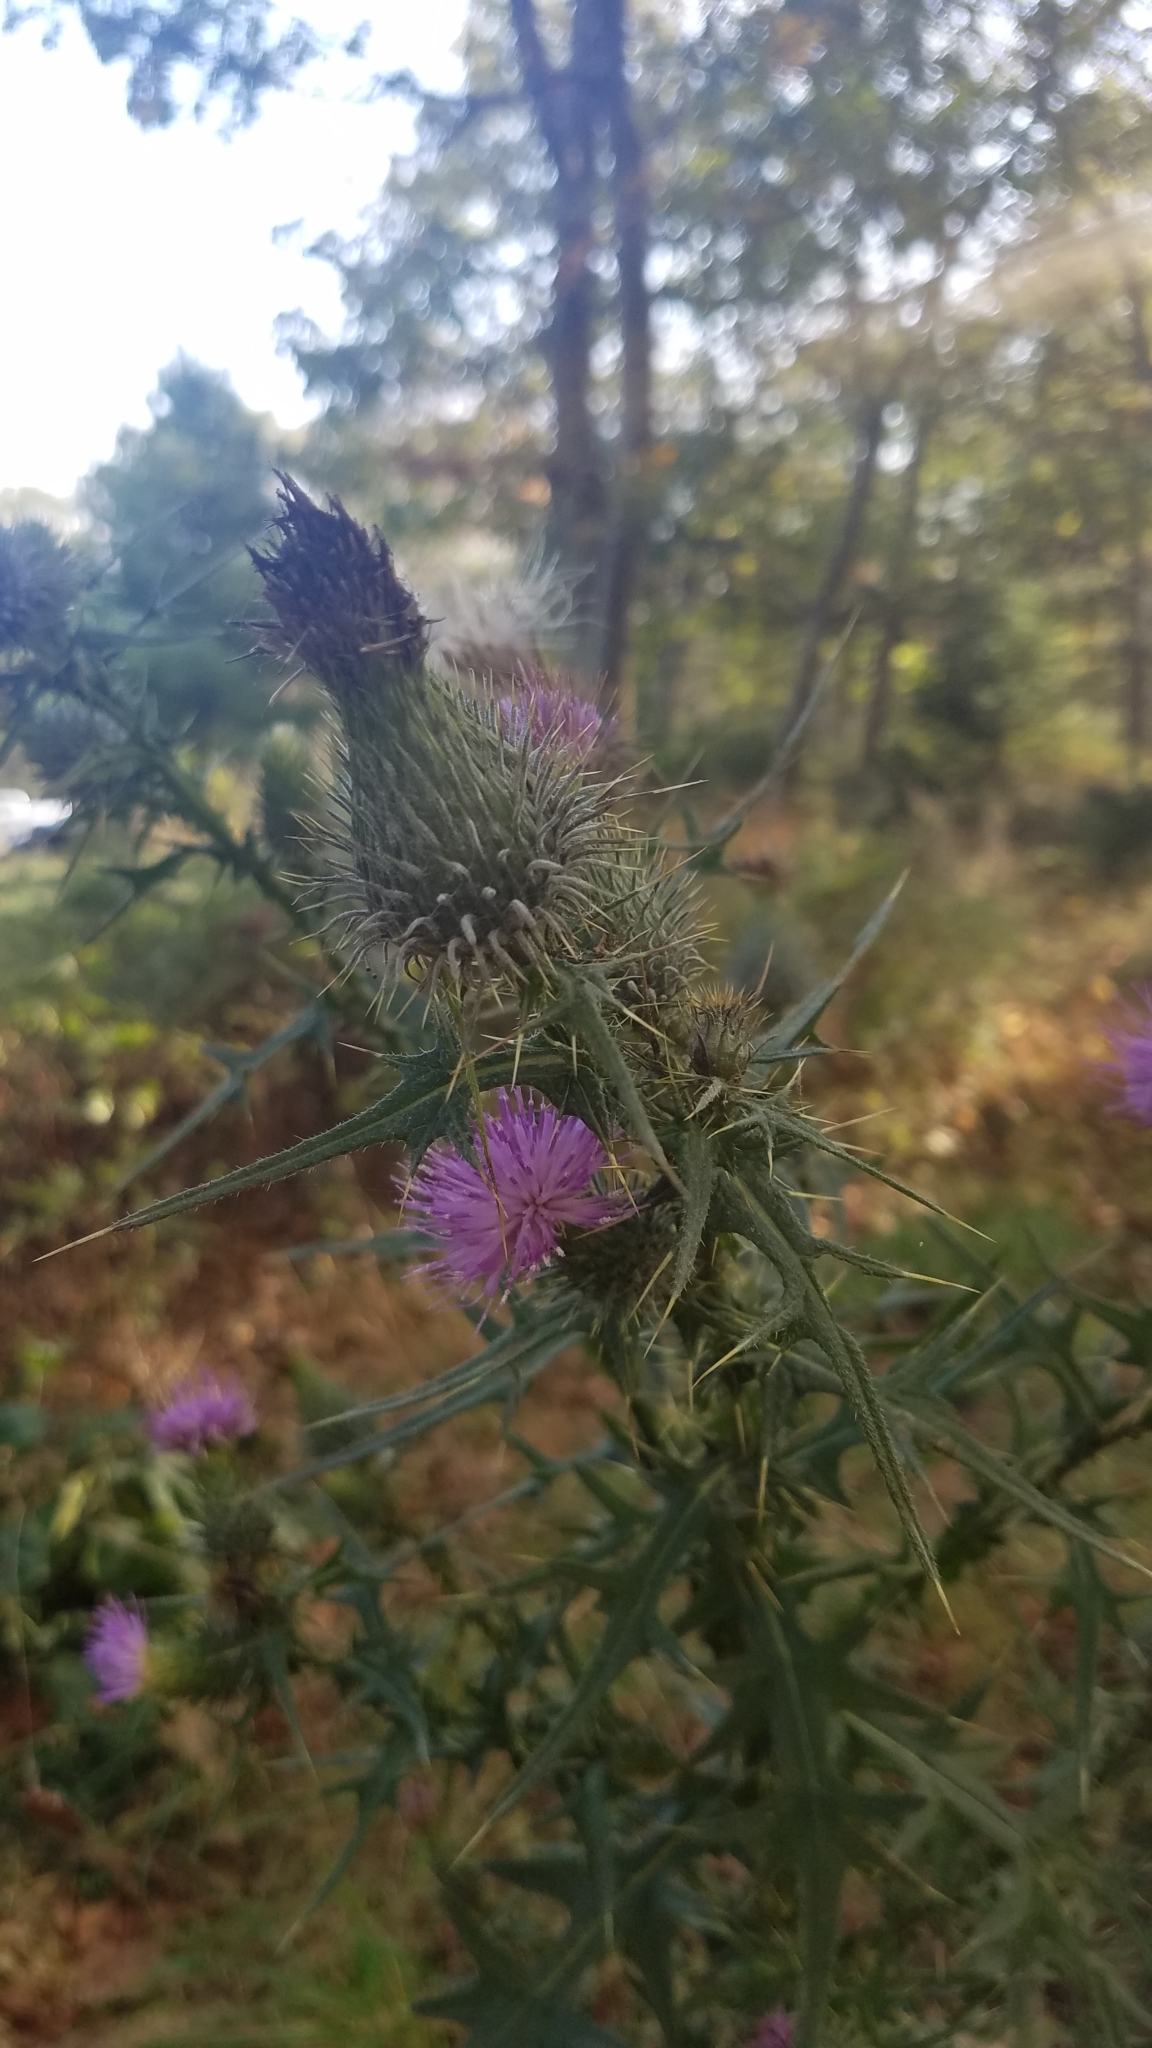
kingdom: Plantae
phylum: Tracheophyta
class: Magnoliopsida
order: Asterales
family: Asteraceae
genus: Cirsium
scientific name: Cirsium vulgare
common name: Bull thistle
